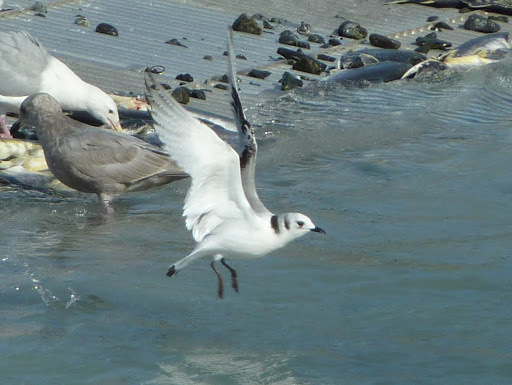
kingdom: Animalia
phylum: Chordata
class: Aves
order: Charadriiformes
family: Laridae
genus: Rissa
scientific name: Rissa tridactyla
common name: Black-legged kittiwake
